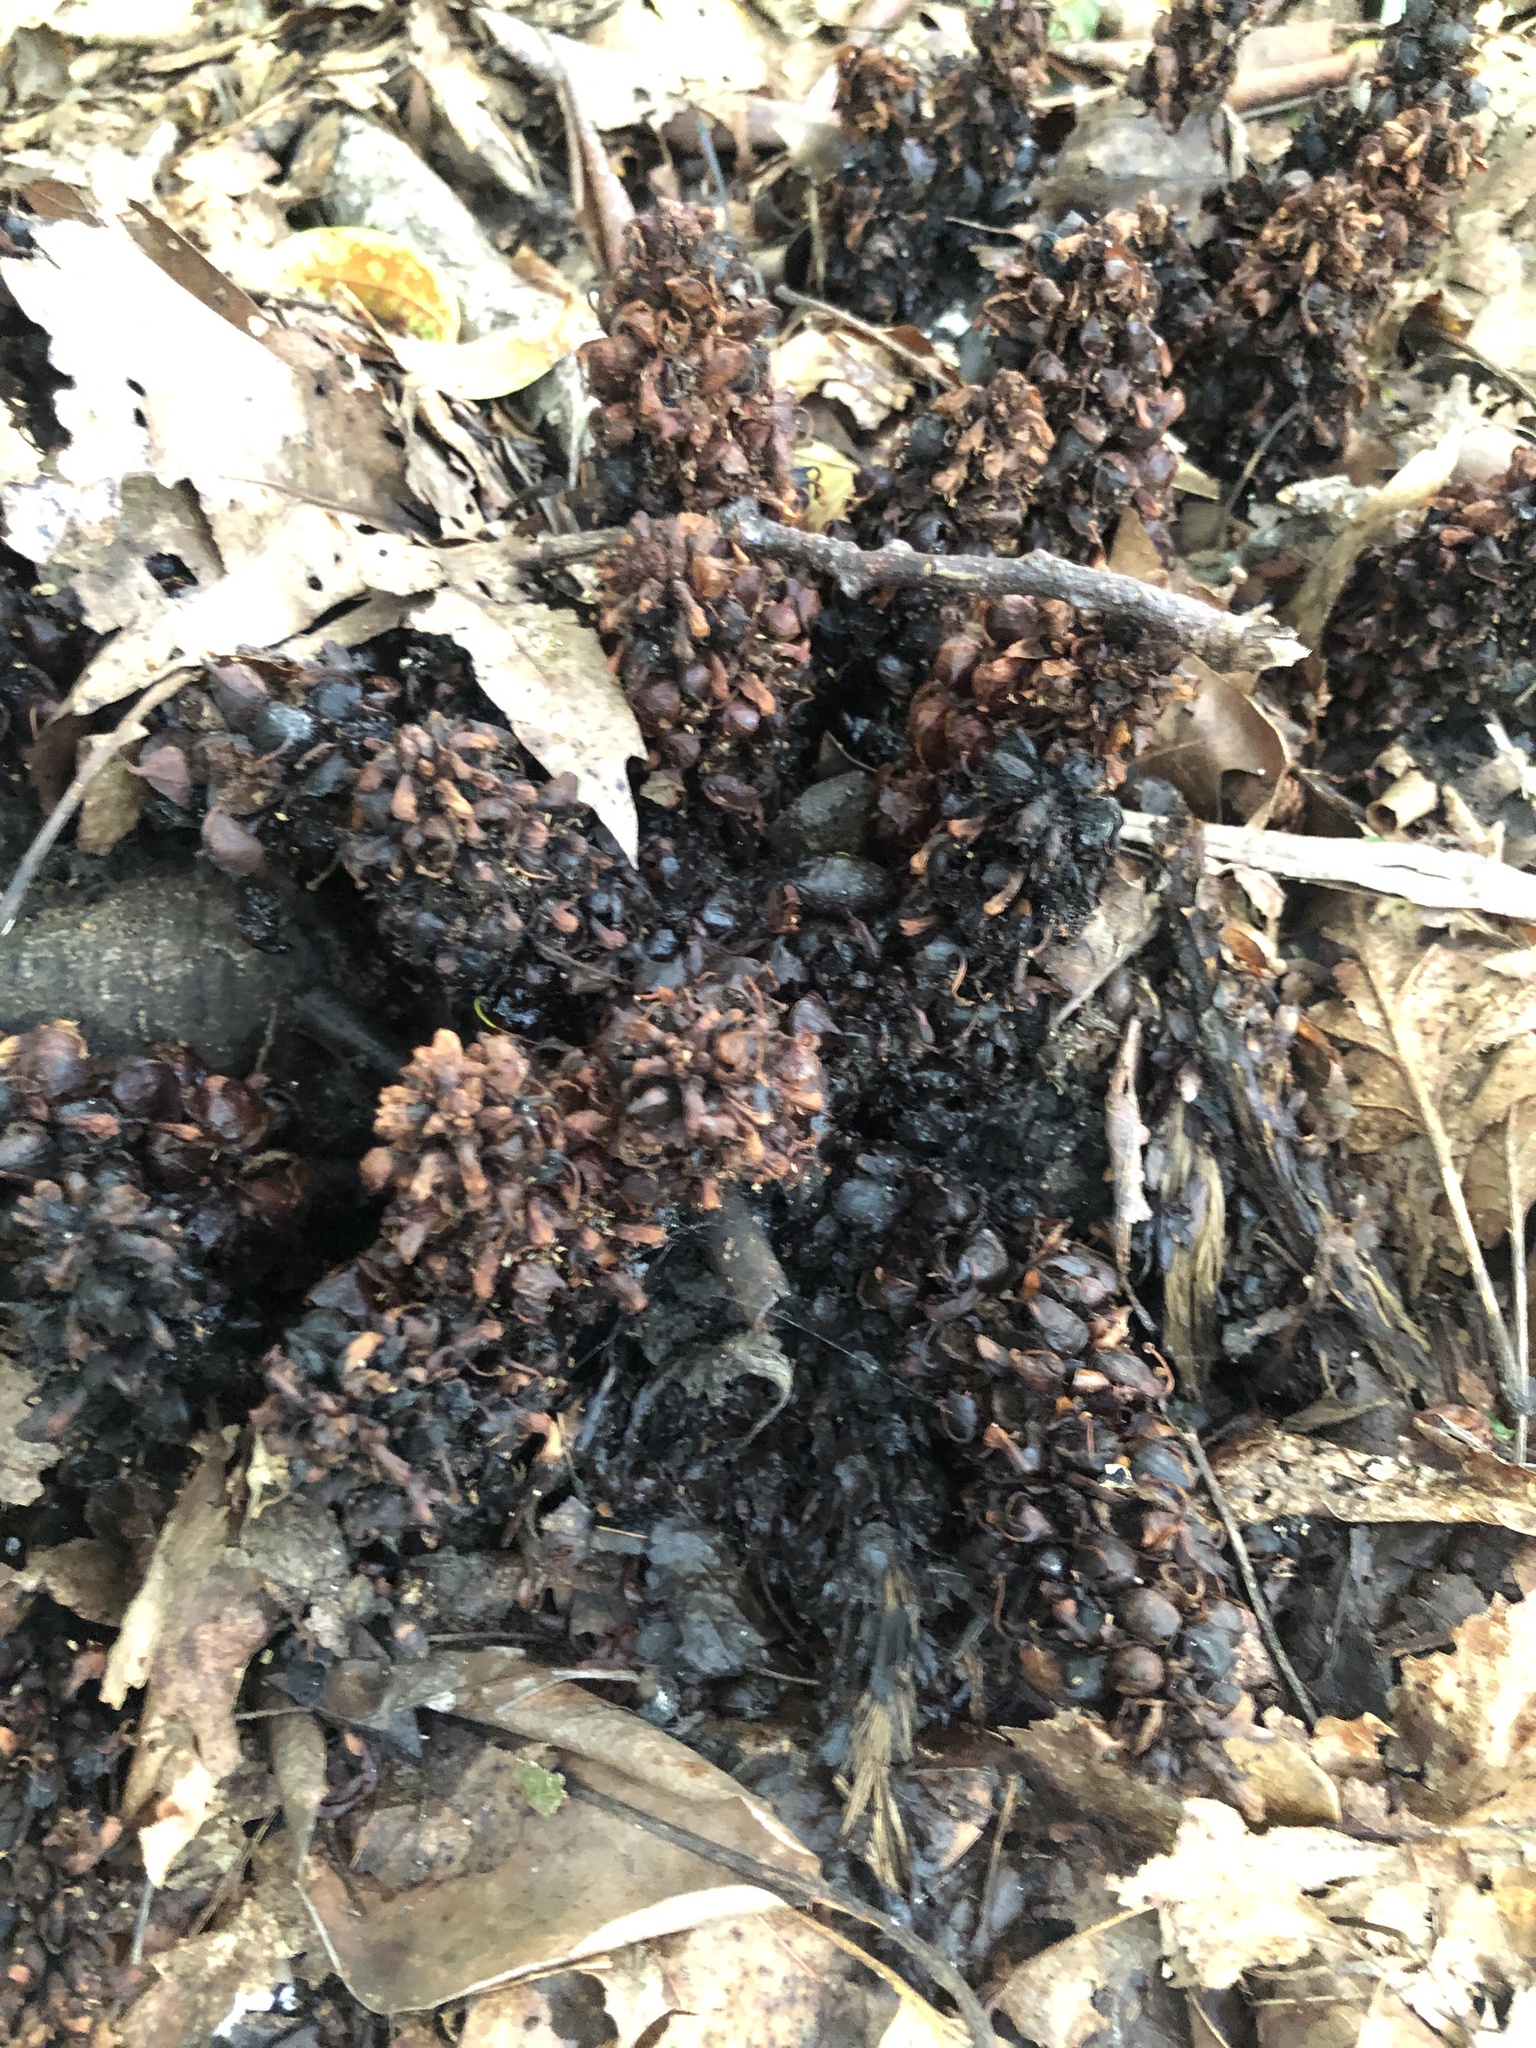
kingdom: Plantae
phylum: Tracheophyta
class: Magnoliopsida
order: Lamiales
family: Orobanchaceae
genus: Conopholis
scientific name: Conopholis americana
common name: American cancer-root
